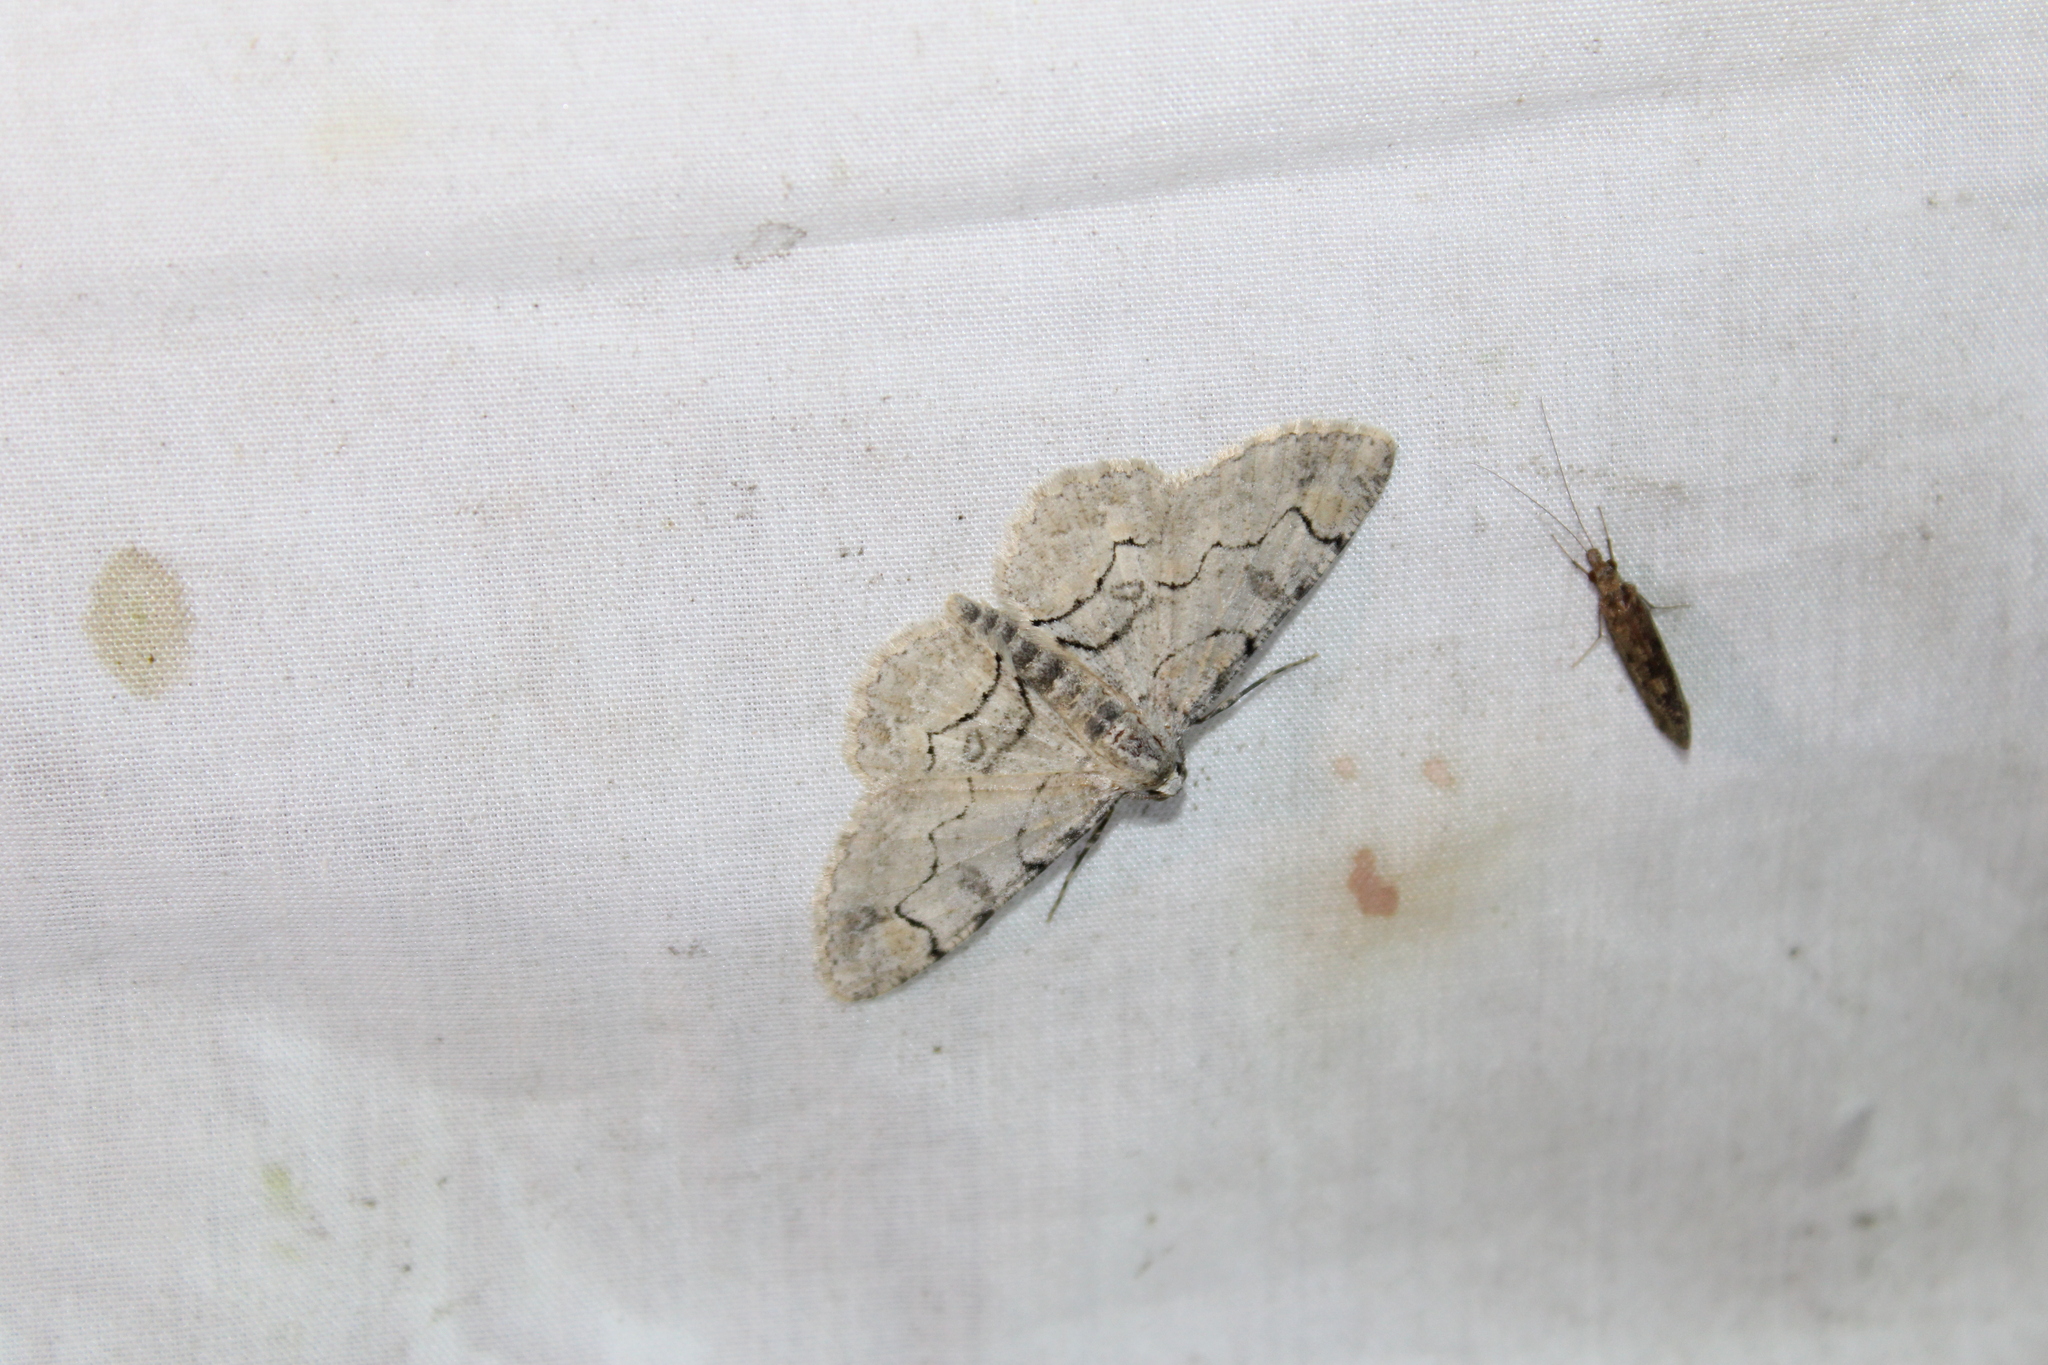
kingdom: Animalia
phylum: Arthropoda
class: Insecta
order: Lepidoptera
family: Geometridae
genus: Iridopsis
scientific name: Iridopsis larvaria
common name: Bent-line gray
